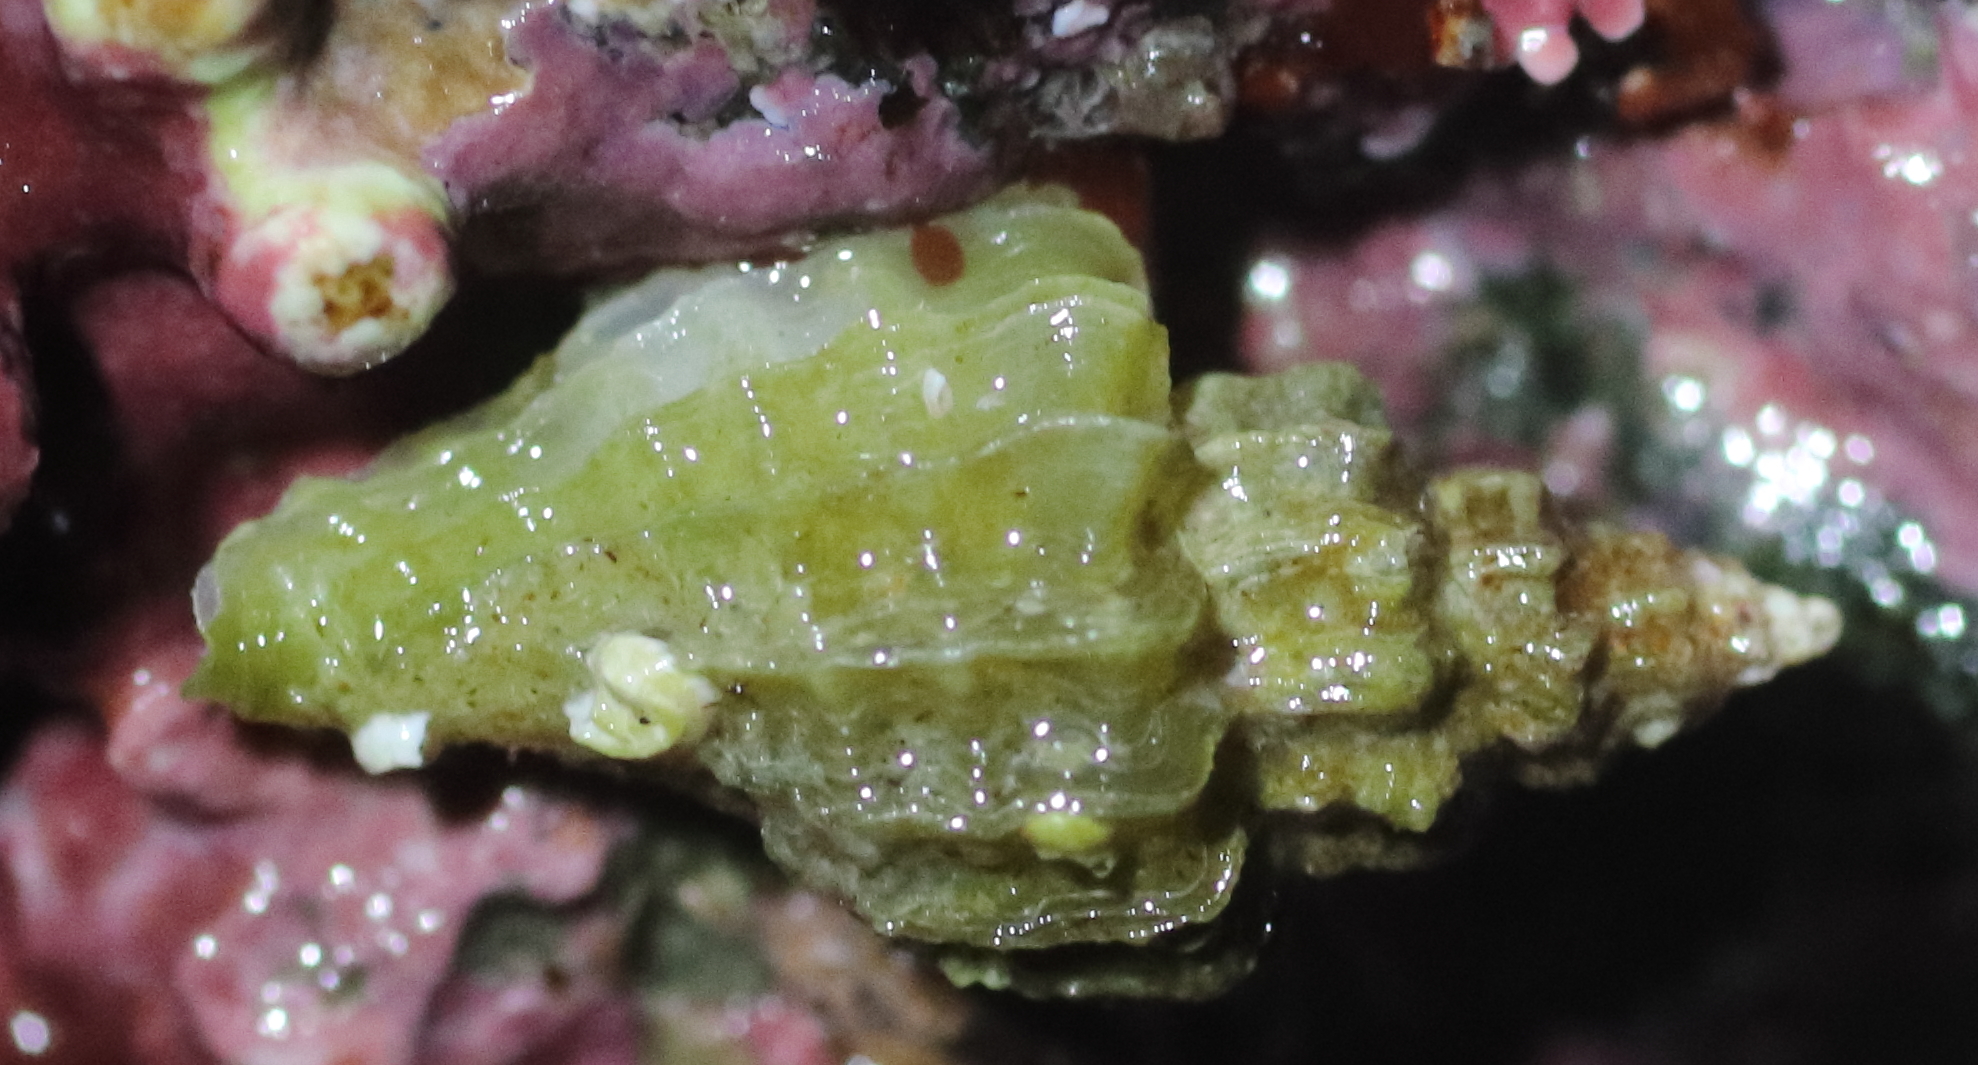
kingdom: Animalia
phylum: Mollusca
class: Gastropoda
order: Neogastropoda
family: Muricidae
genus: Scabrotrophon
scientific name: Scabrotrophon stuarti
